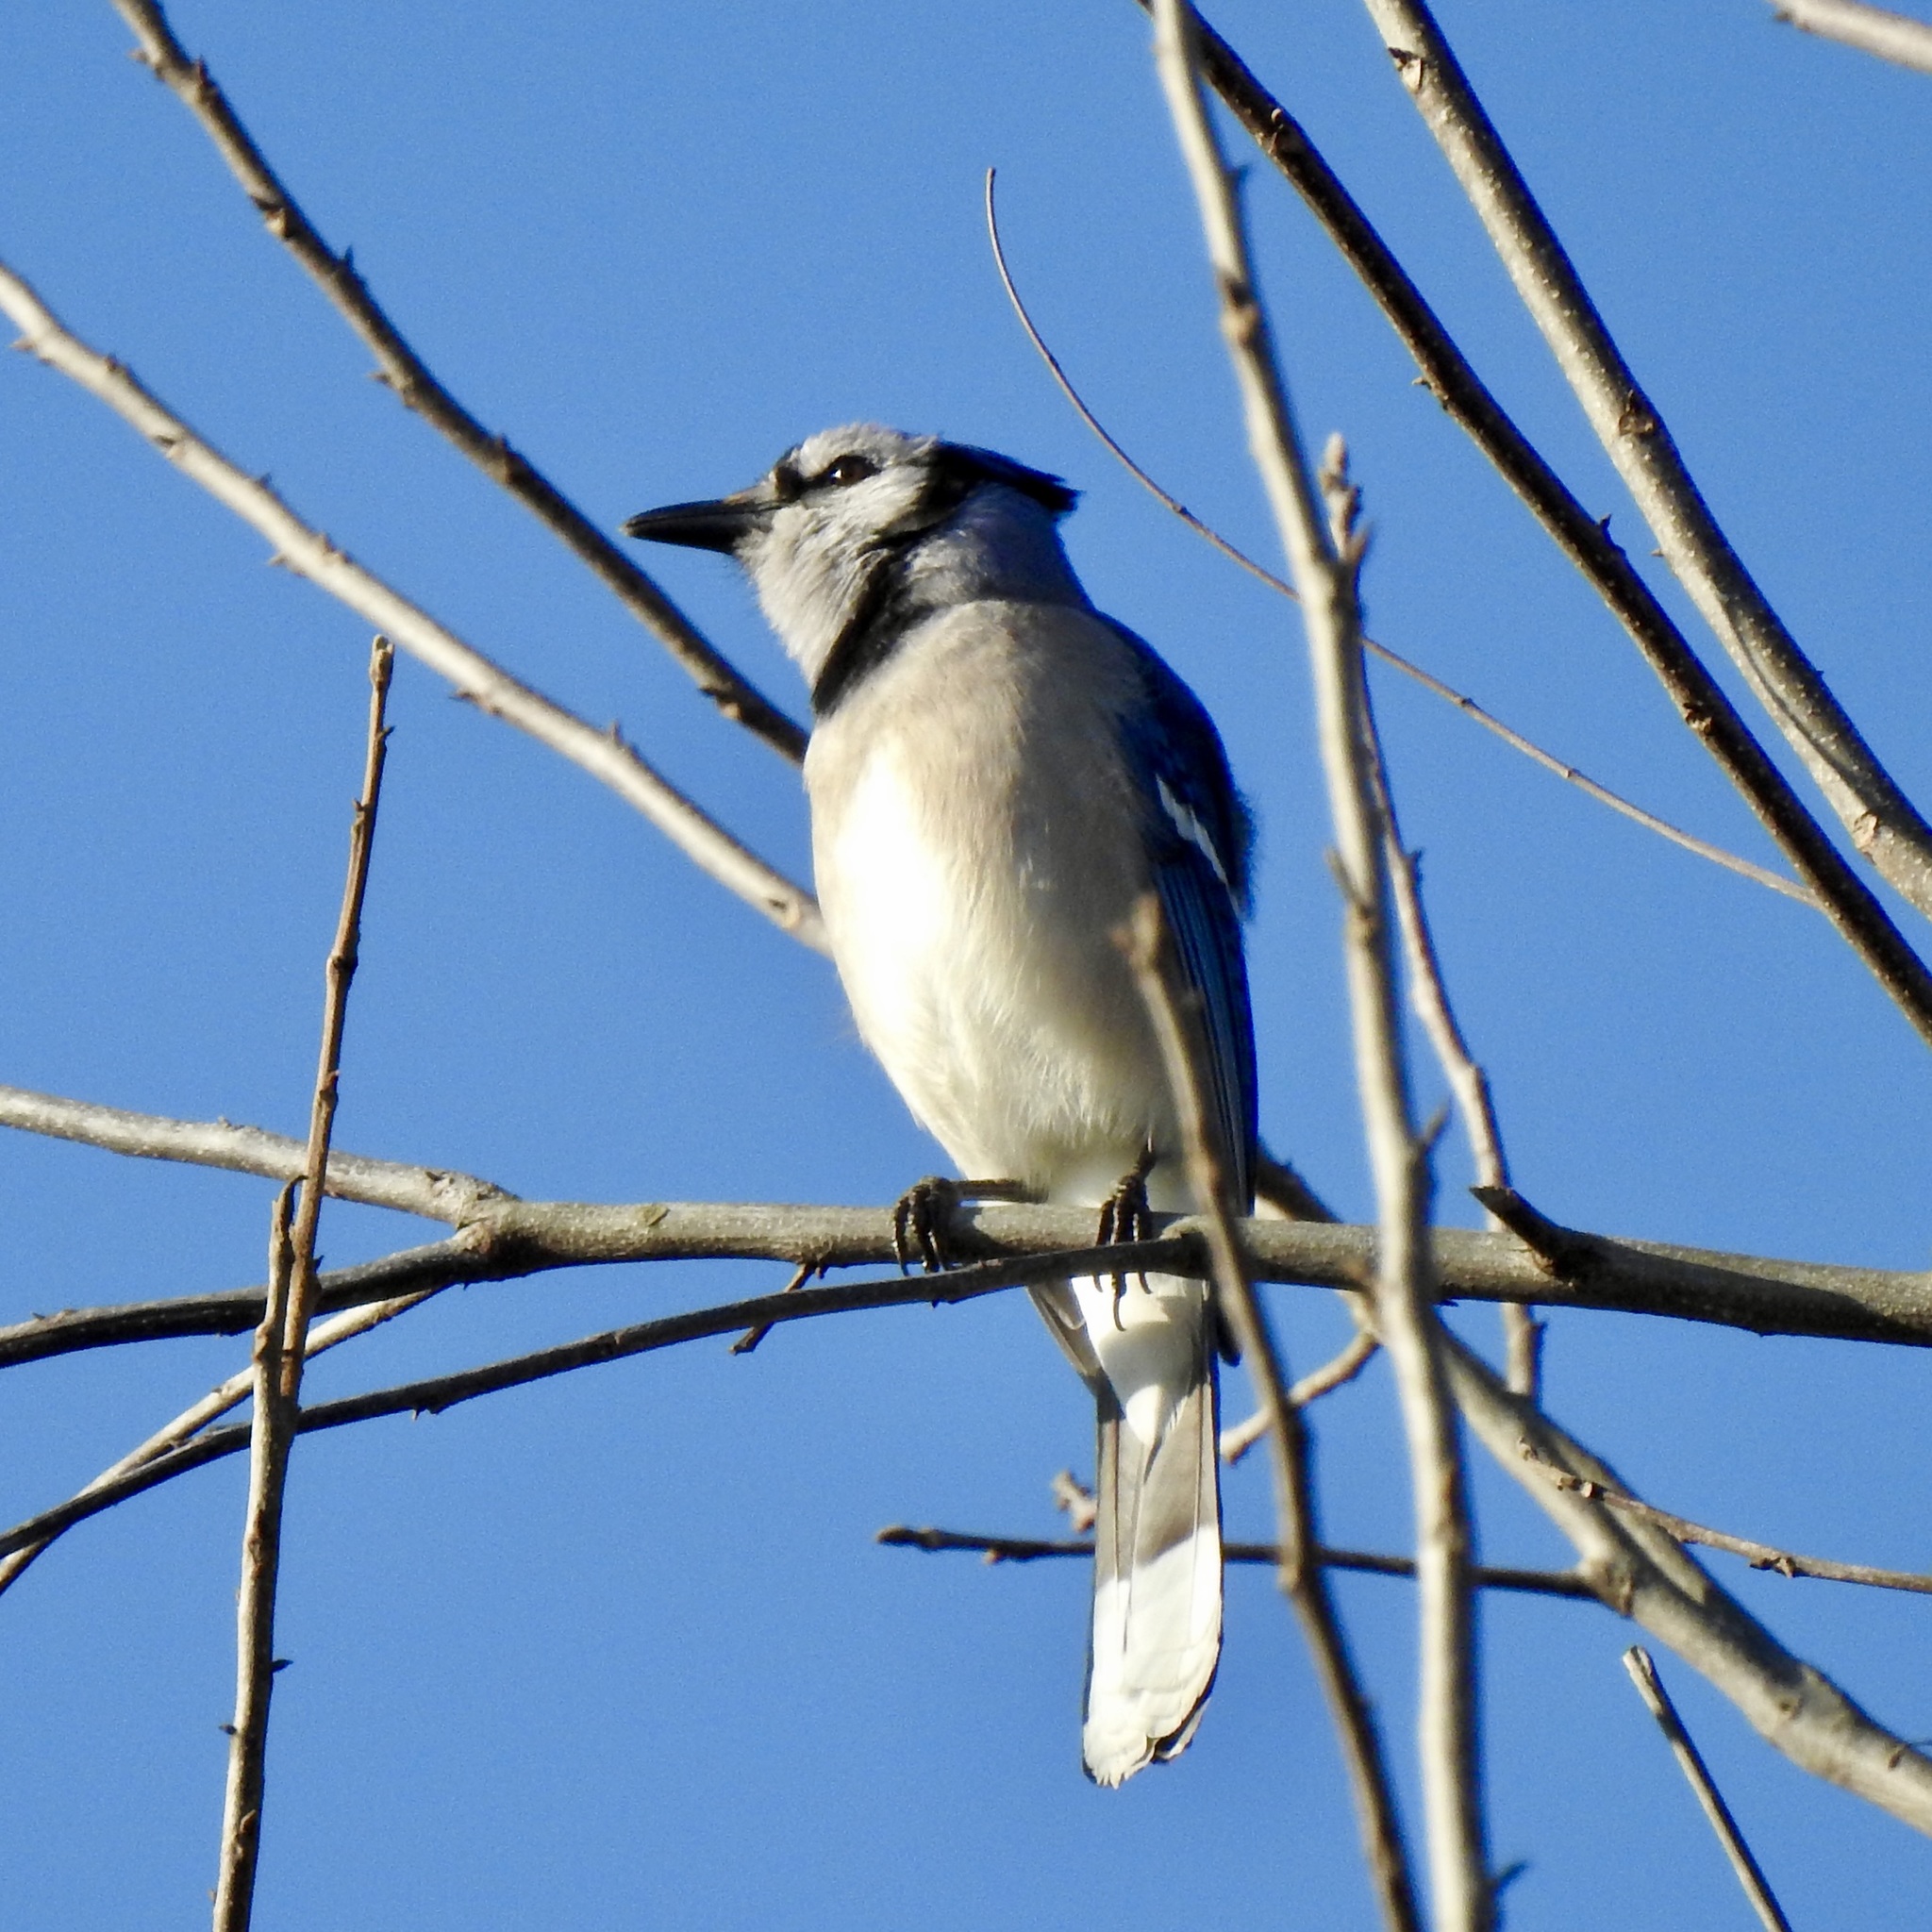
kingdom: Animalia
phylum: Chordata
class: Aves
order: Passeriformes
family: Corvidae
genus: Cyanocitta
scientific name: Cyanocitta cristata
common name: Blue jay
